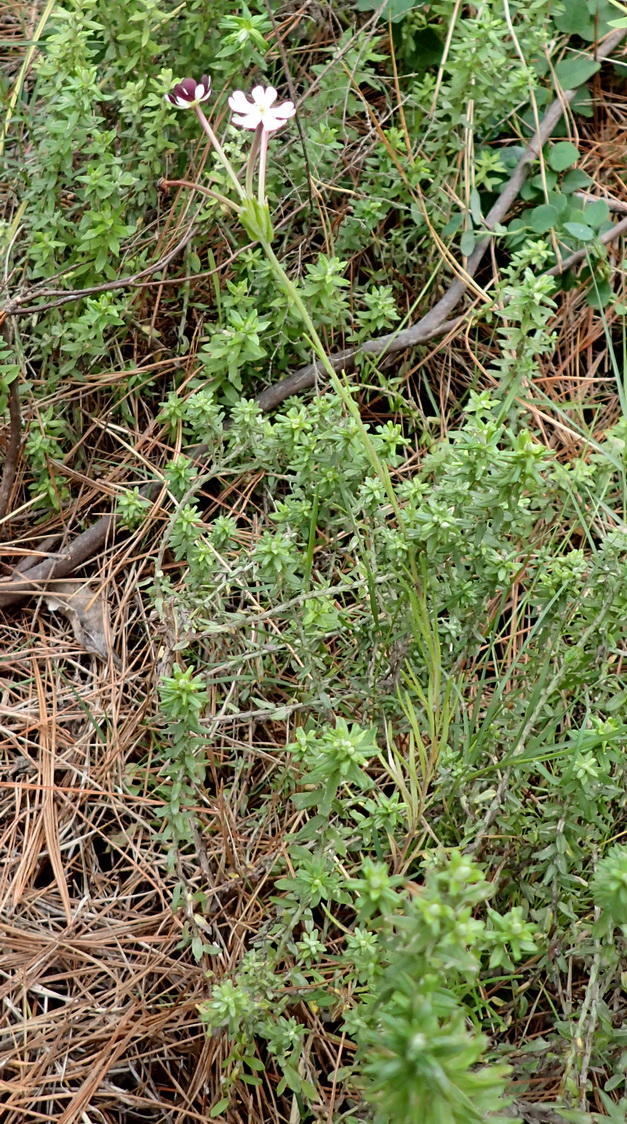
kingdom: Plantae
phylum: Tracheophyta
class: Magnoliopsida
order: Lamiales
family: Scrophulariaceae
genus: Zaluzianskya
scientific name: Zaluzianskya capensis
